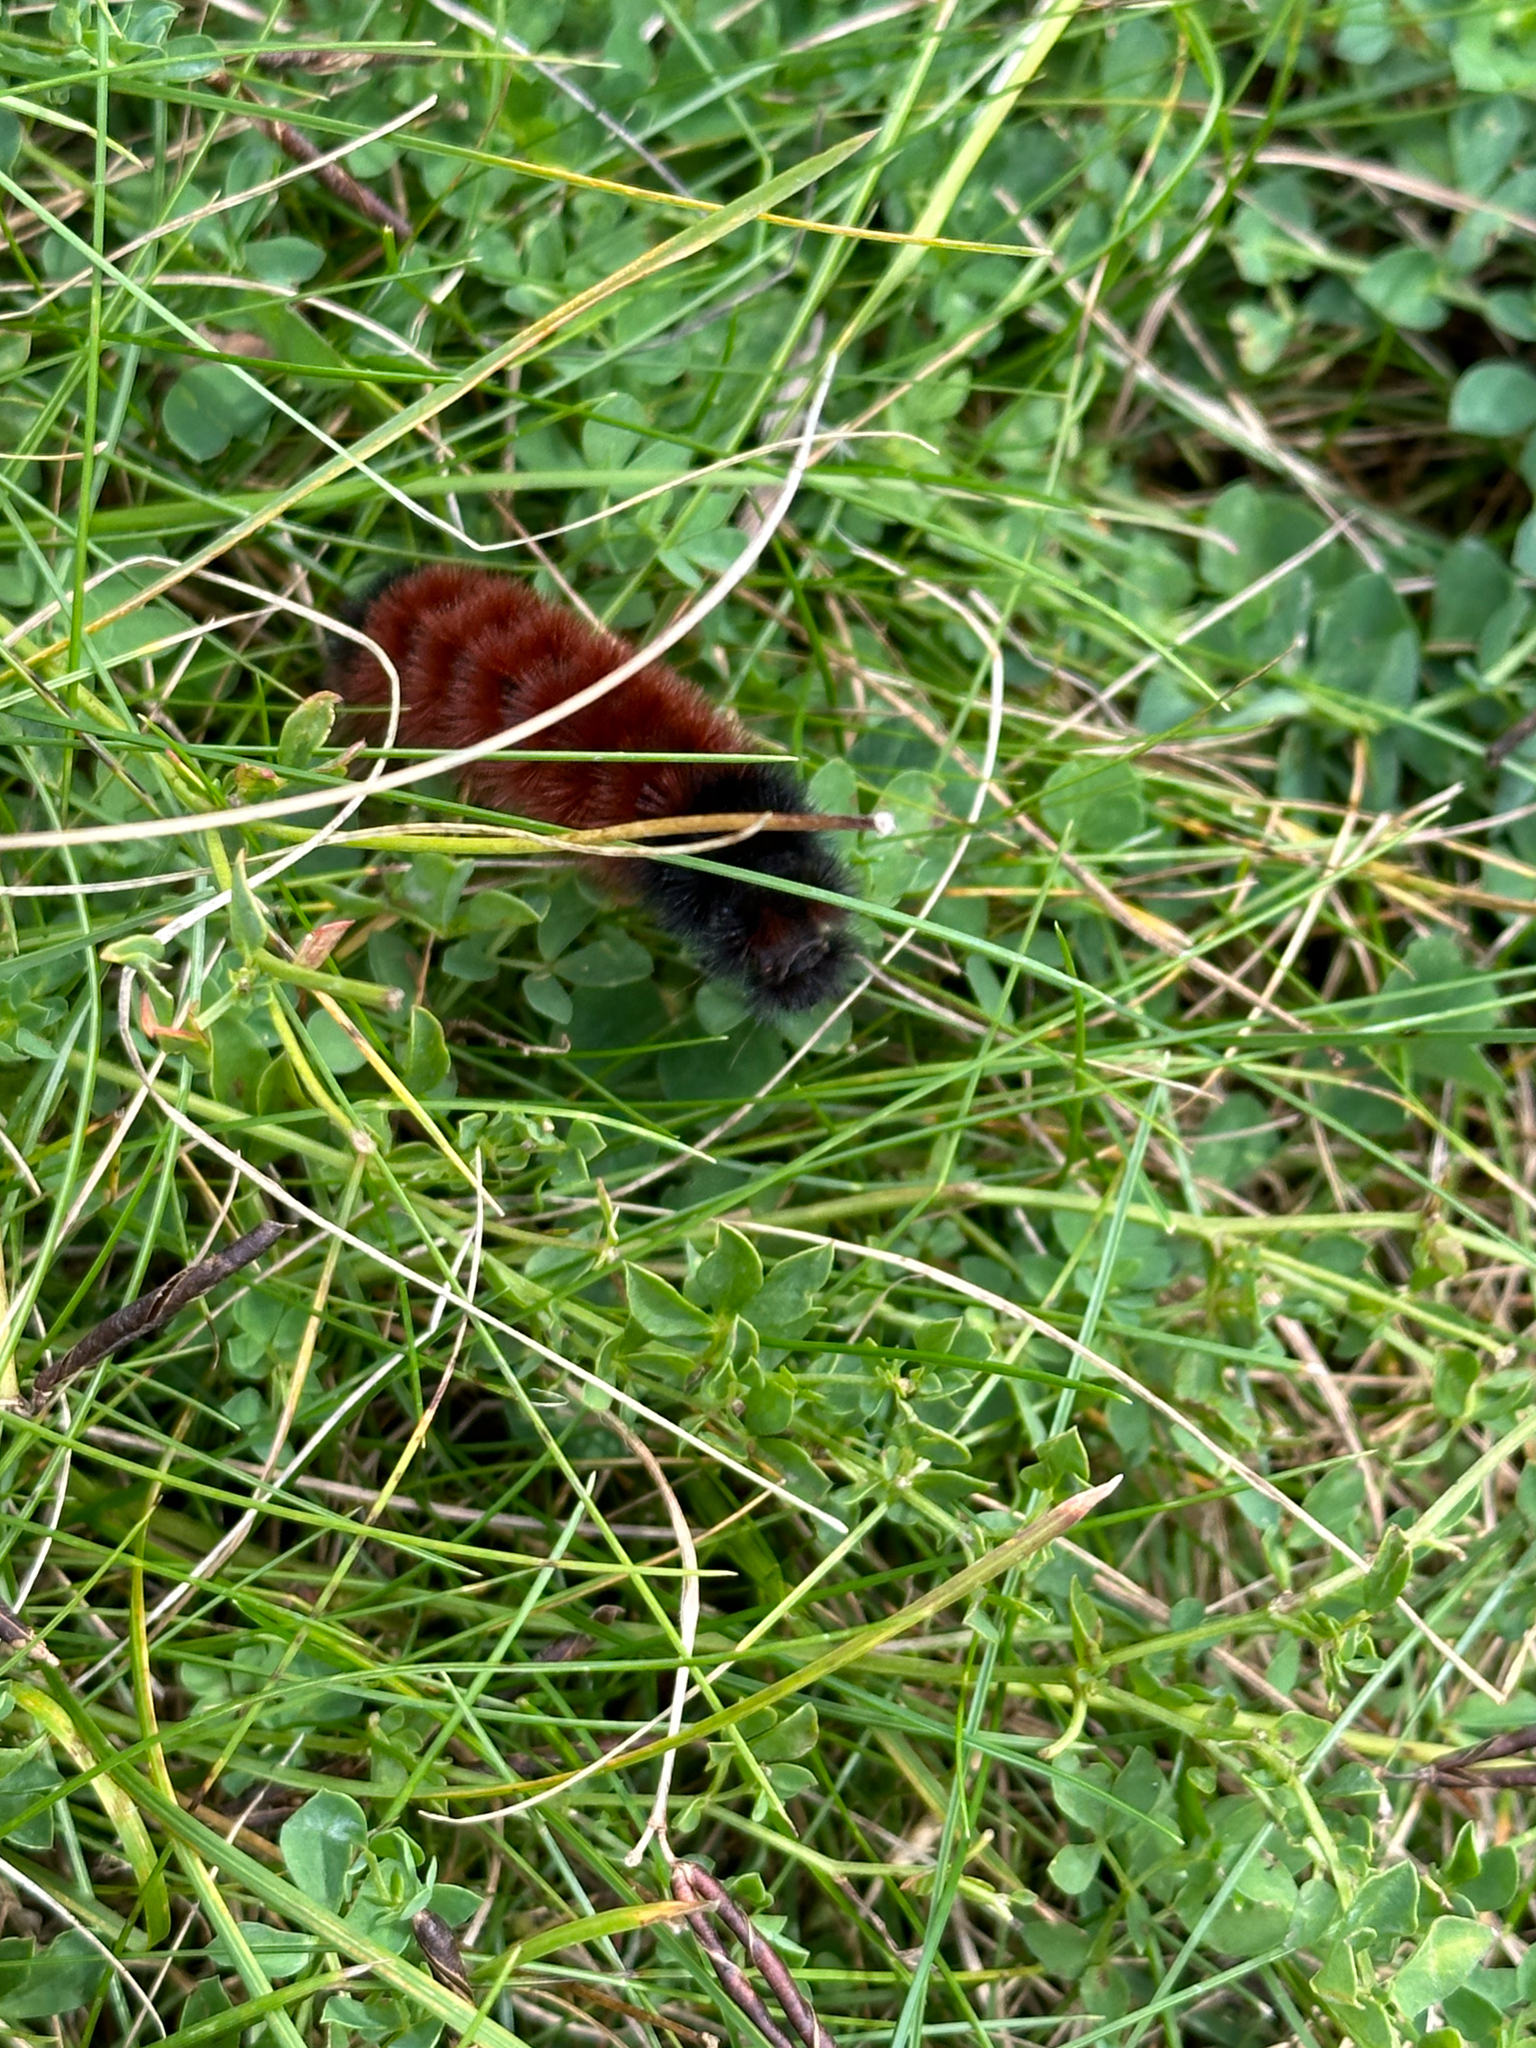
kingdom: Animalia
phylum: Arthropoda
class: Insecta
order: Lepidoptera
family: Erebidae
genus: Pyrrharctia
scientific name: Pyrrharctia isabella
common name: Isabella tiger moth
